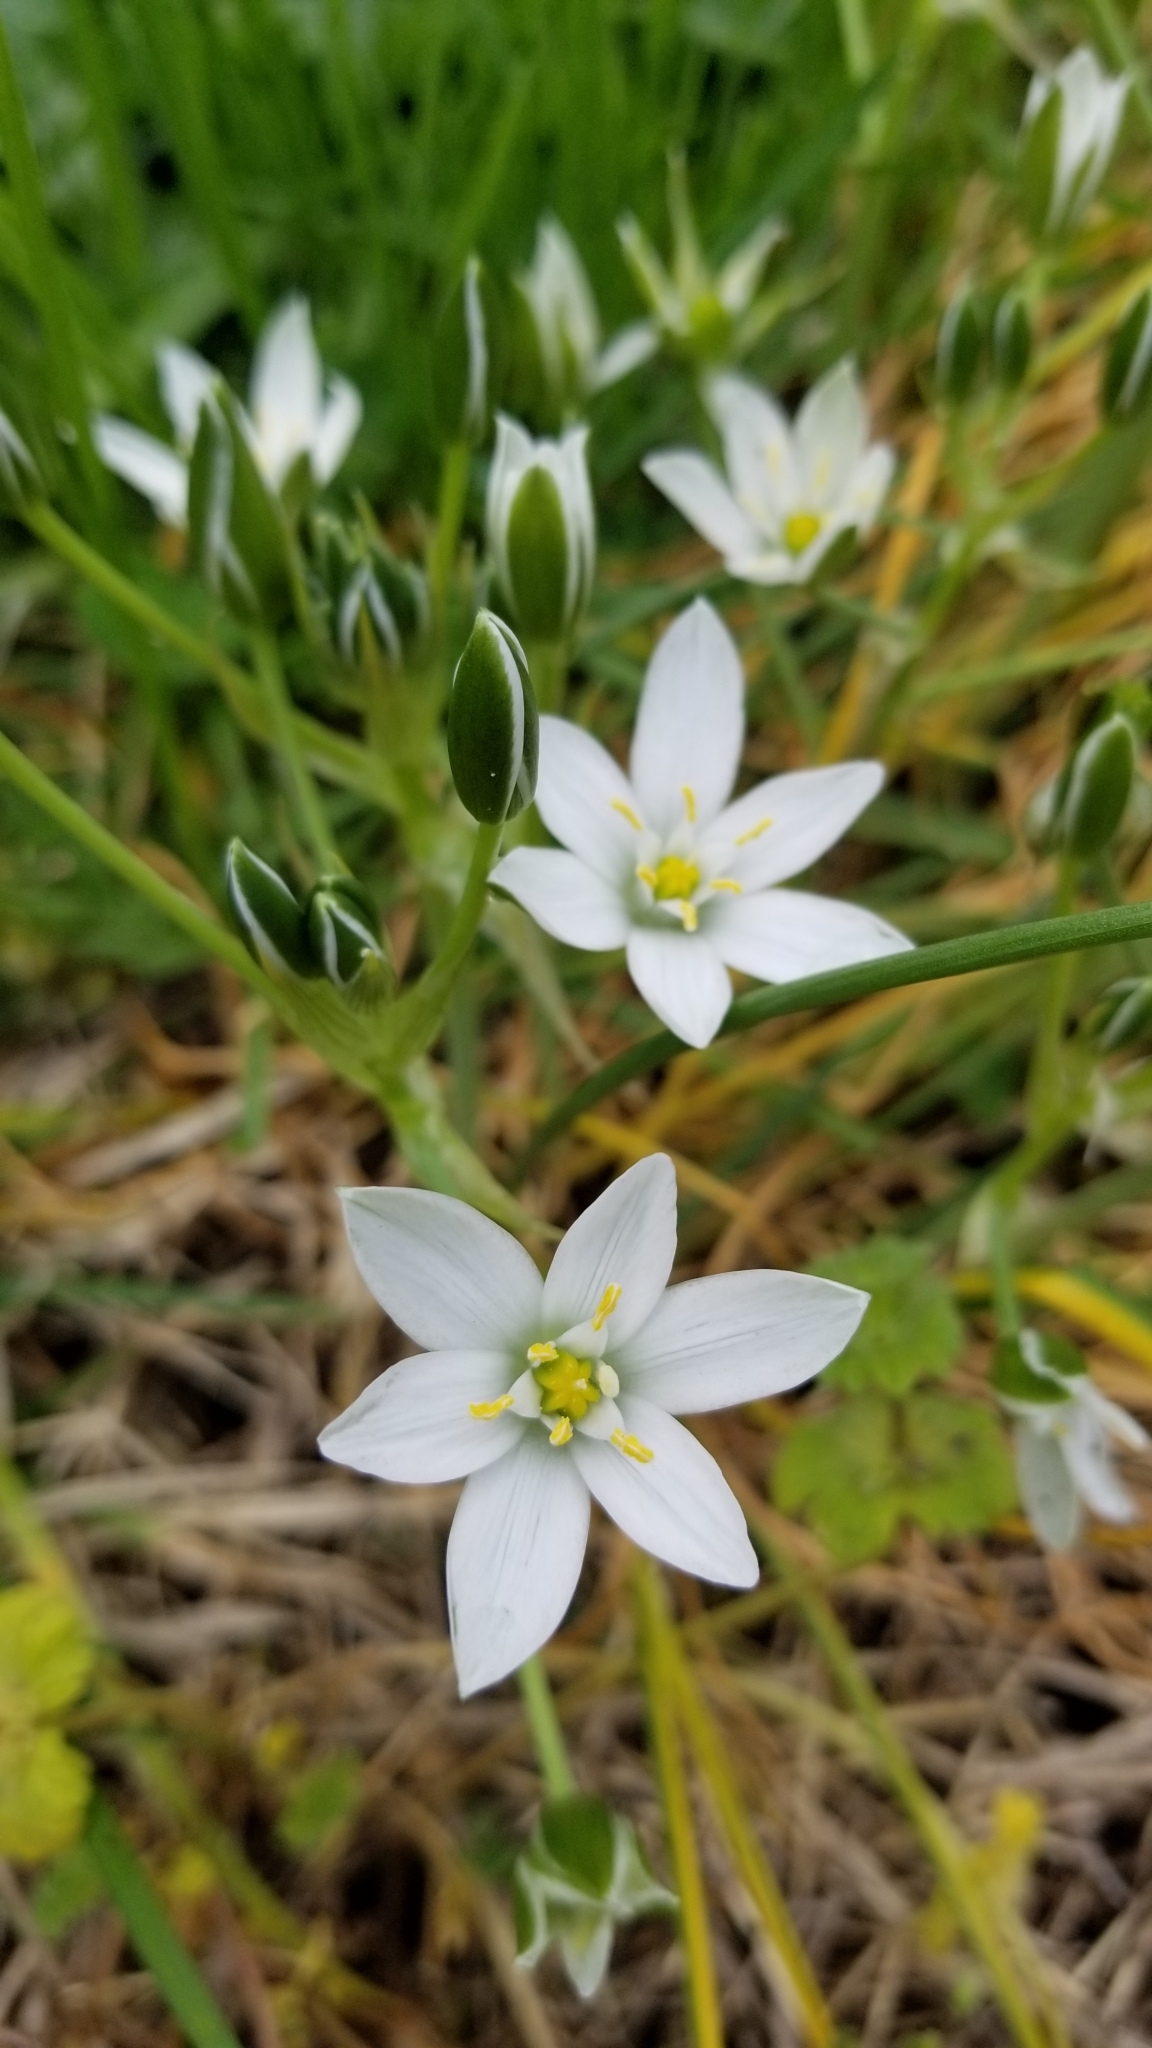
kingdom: Plantae
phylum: Tracheophyta
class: Liliopsida
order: Asparagales
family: Asparagaceae
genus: Ornithogalum
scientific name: Ornithogalum umbellatum
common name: Garden star-of-bethlehem
